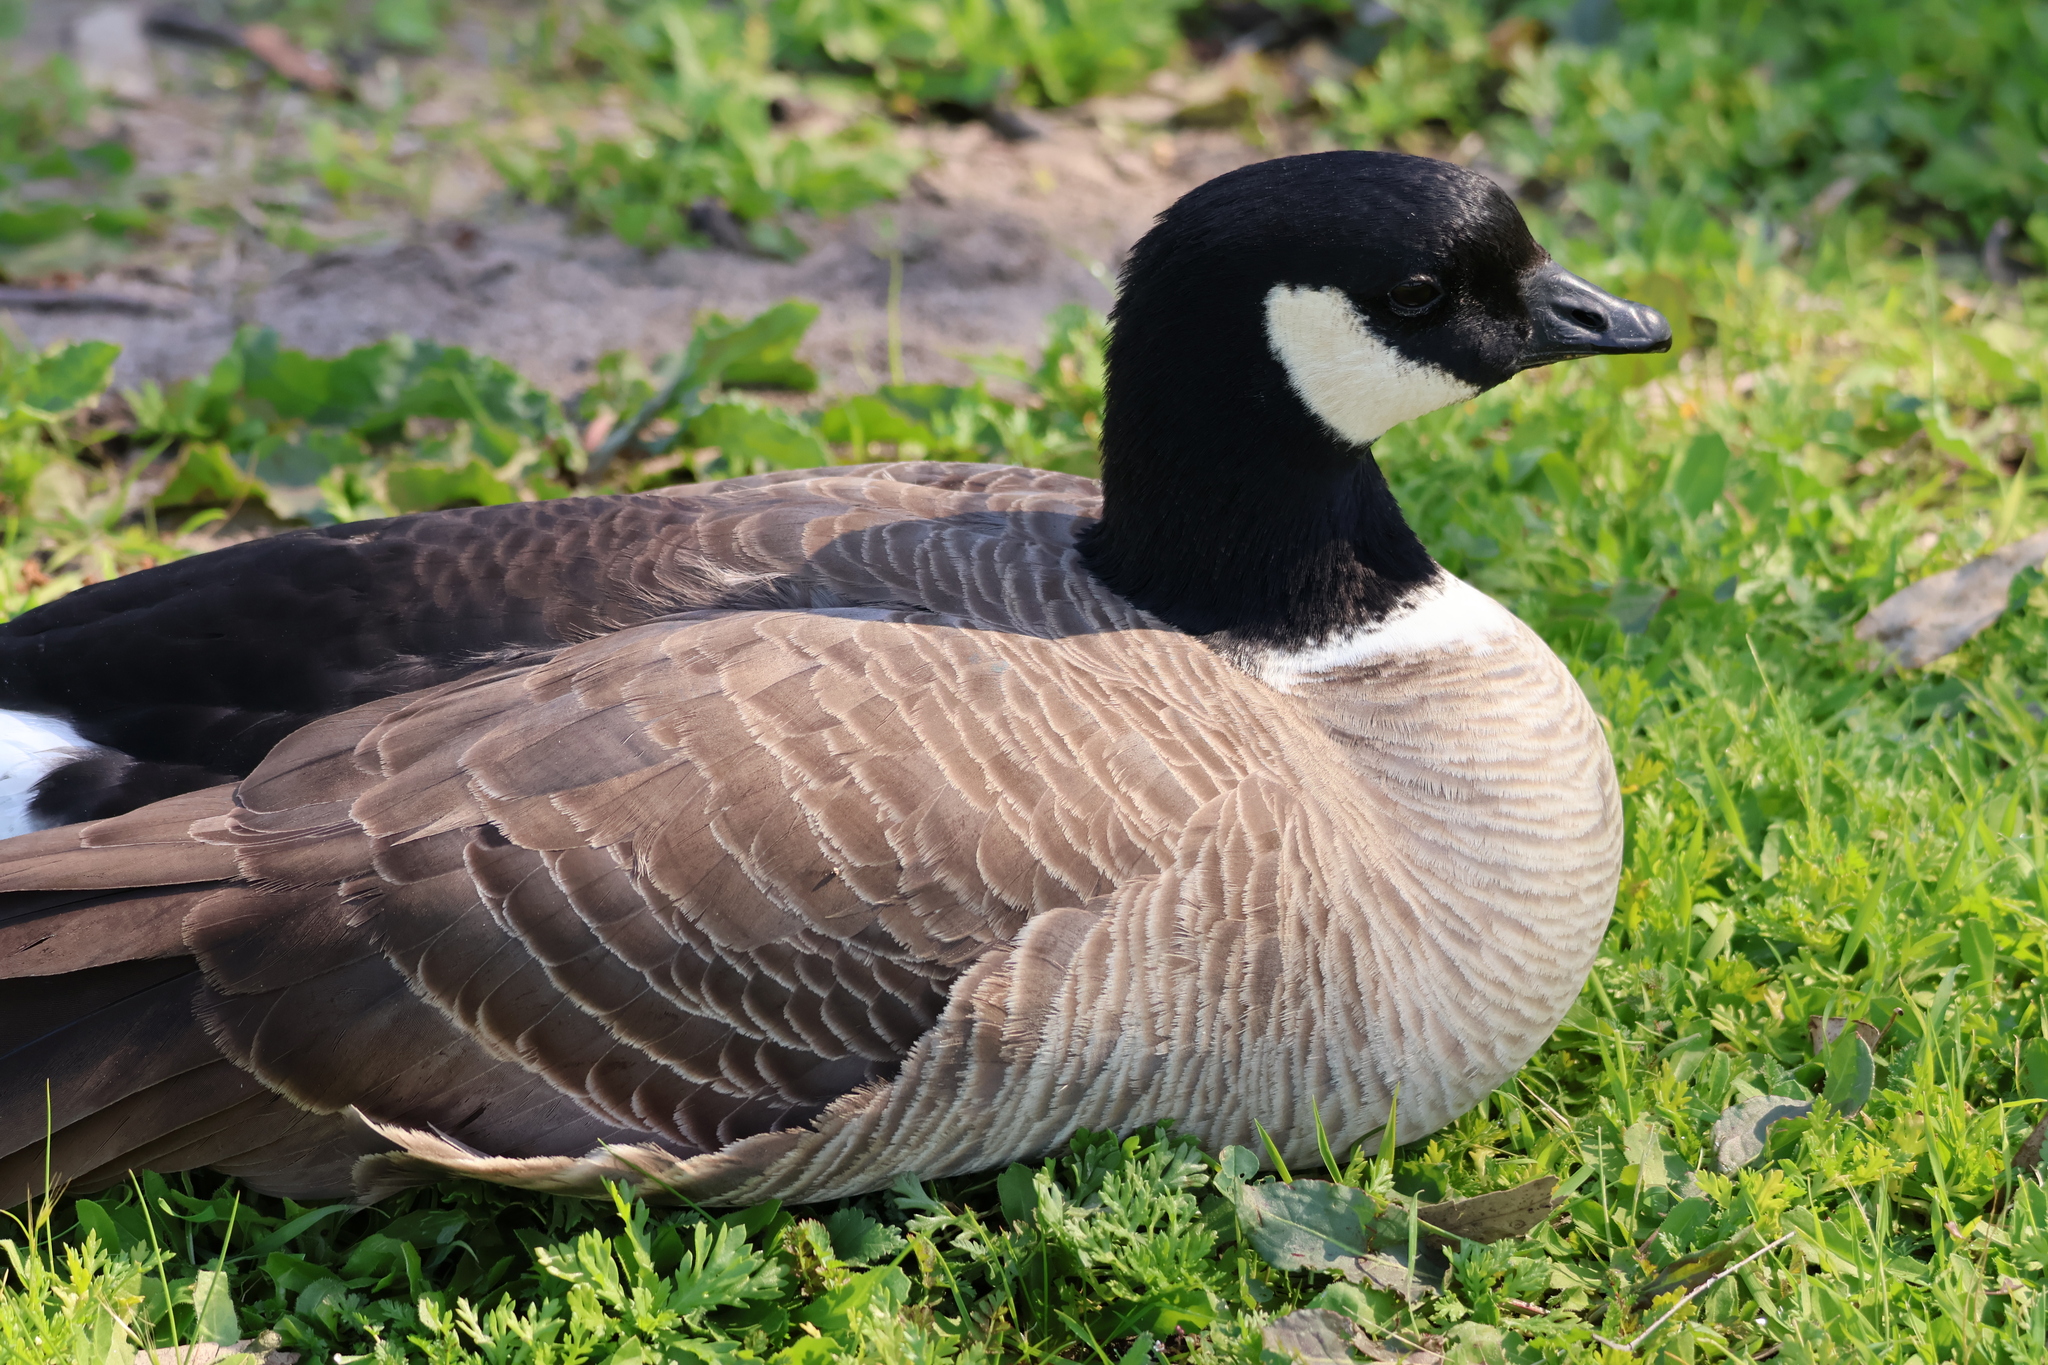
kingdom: Animalia
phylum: Chordata
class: Aves
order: Anseriformes
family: Anatidae
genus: Branta
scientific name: Branta hutchinsii
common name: Cackling goose
